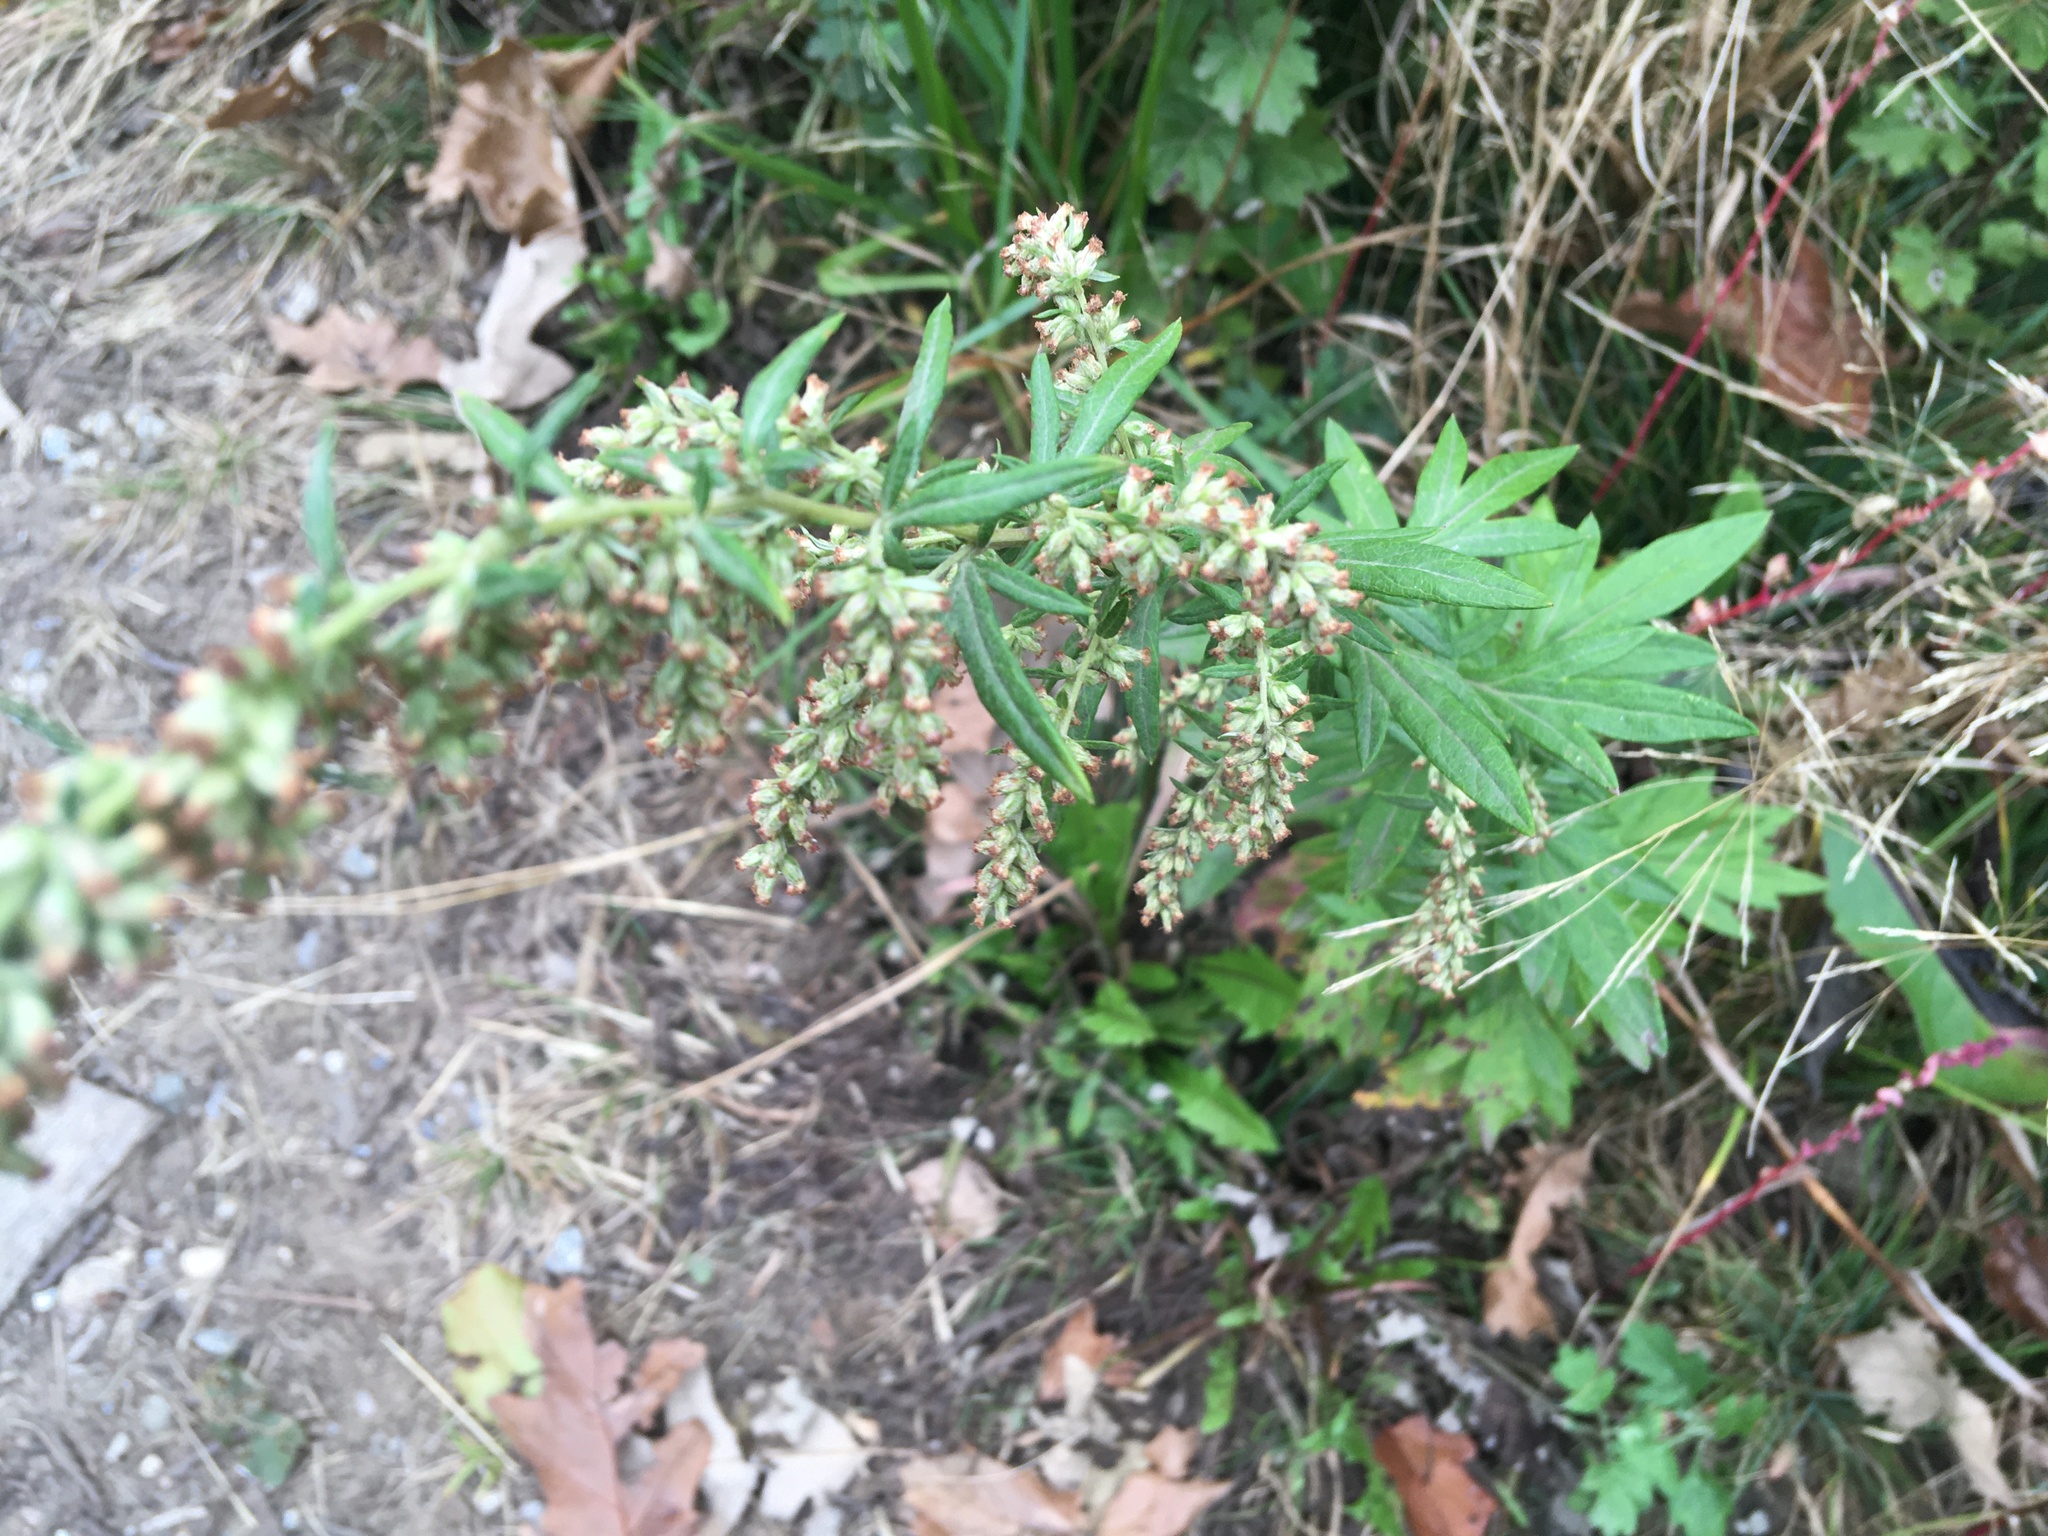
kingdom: Plantae
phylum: Tracheophyta
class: Magnoliopsida
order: Asterales
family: Asteraceae
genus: Artemisia
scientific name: Artemisia vulgaris
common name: Mugwort
